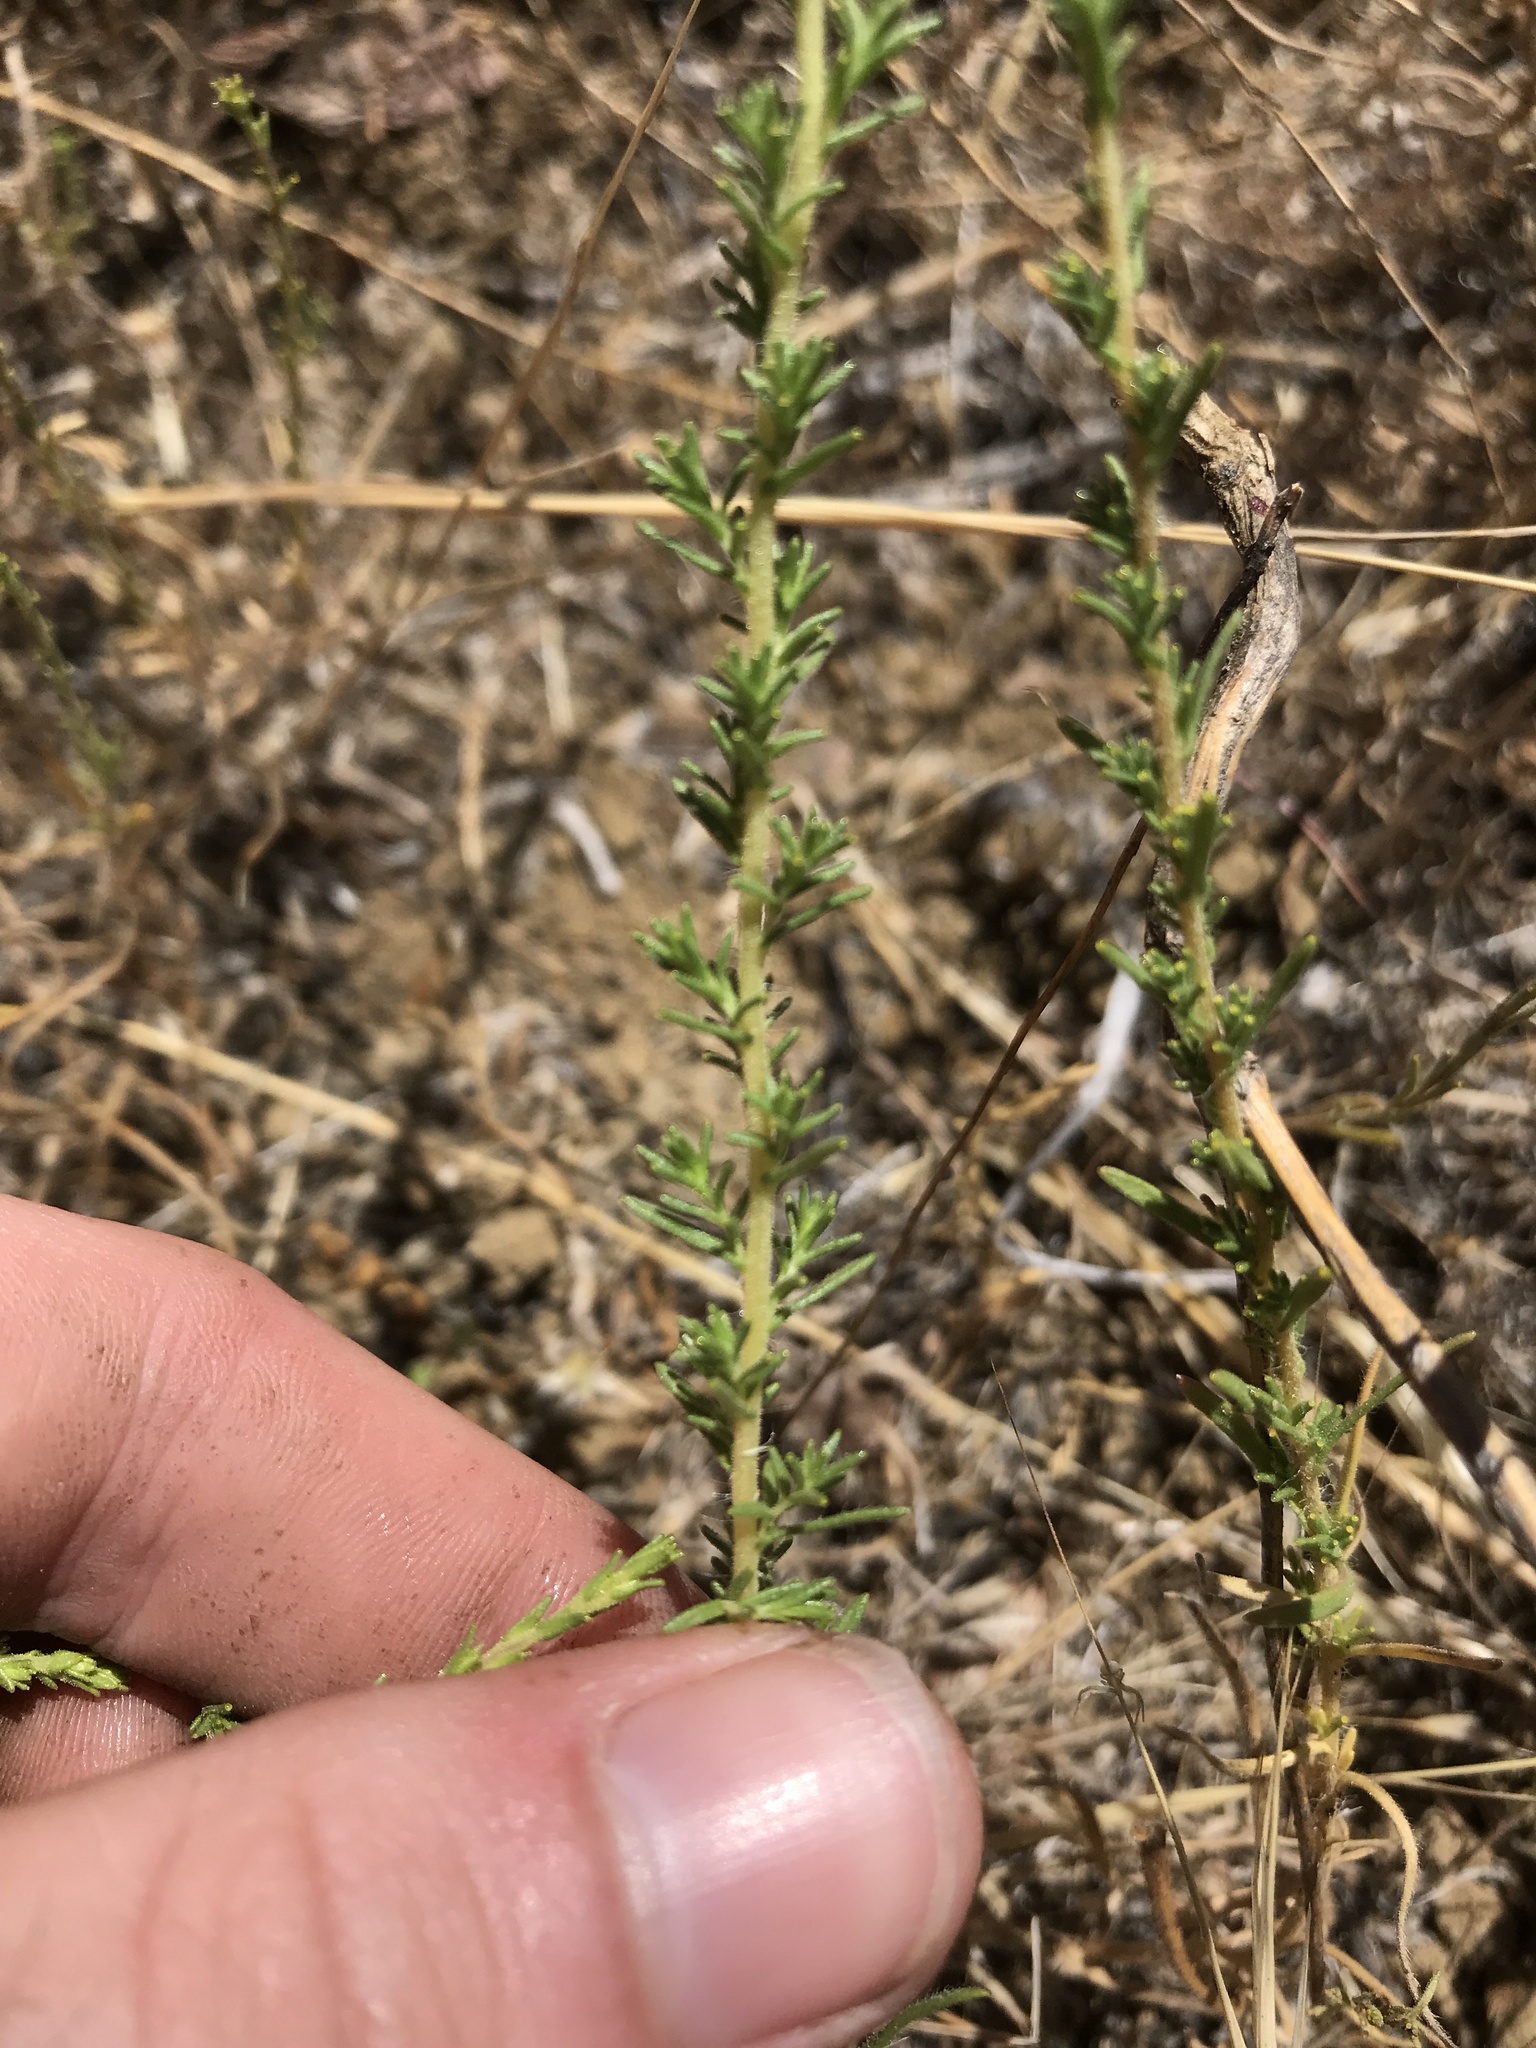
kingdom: Plantae
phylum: Tracheophyta
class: Magnoliopsida
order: Asterales
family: Asteraceae
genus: Holocarpha
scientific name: Holocarpha virgata
